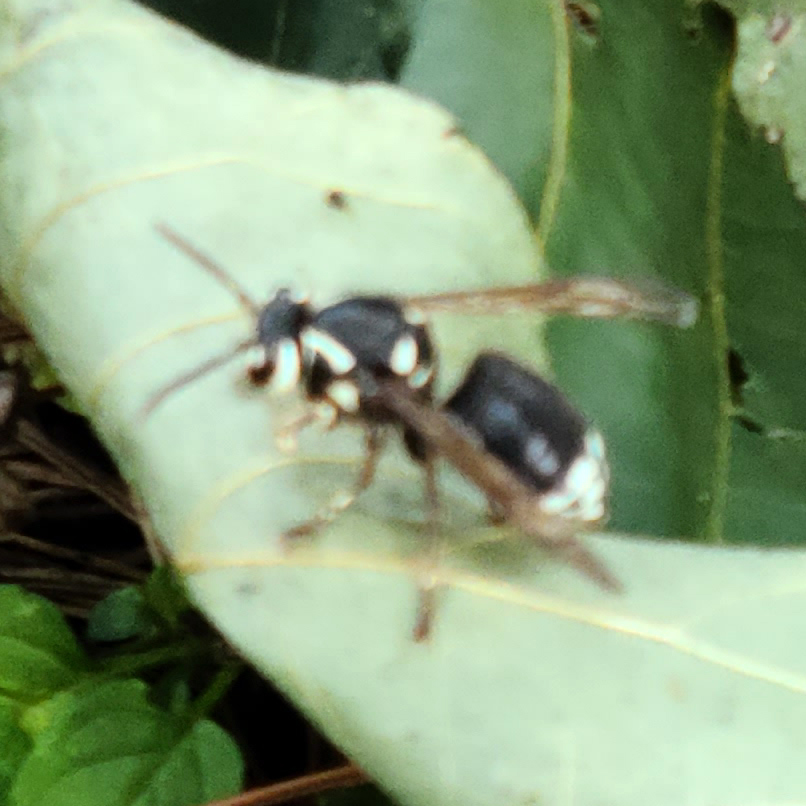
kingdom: Animalia
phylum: Arthropoda
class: Insecta
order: Hymenoptera
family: Vespidae
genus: Dolichovespula
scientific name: Dolichovespula maculata
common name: Bald-faced hornet
